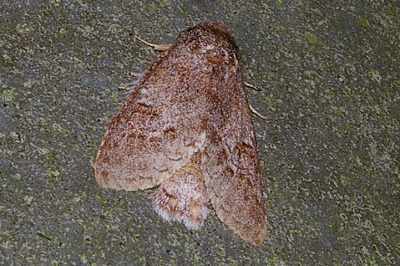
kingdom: Animalia
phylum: Arthropoda
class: Insecta
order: Lepidoptera
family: Notodontidae
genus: Mesophalera
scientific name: Mesophalera sigmata
